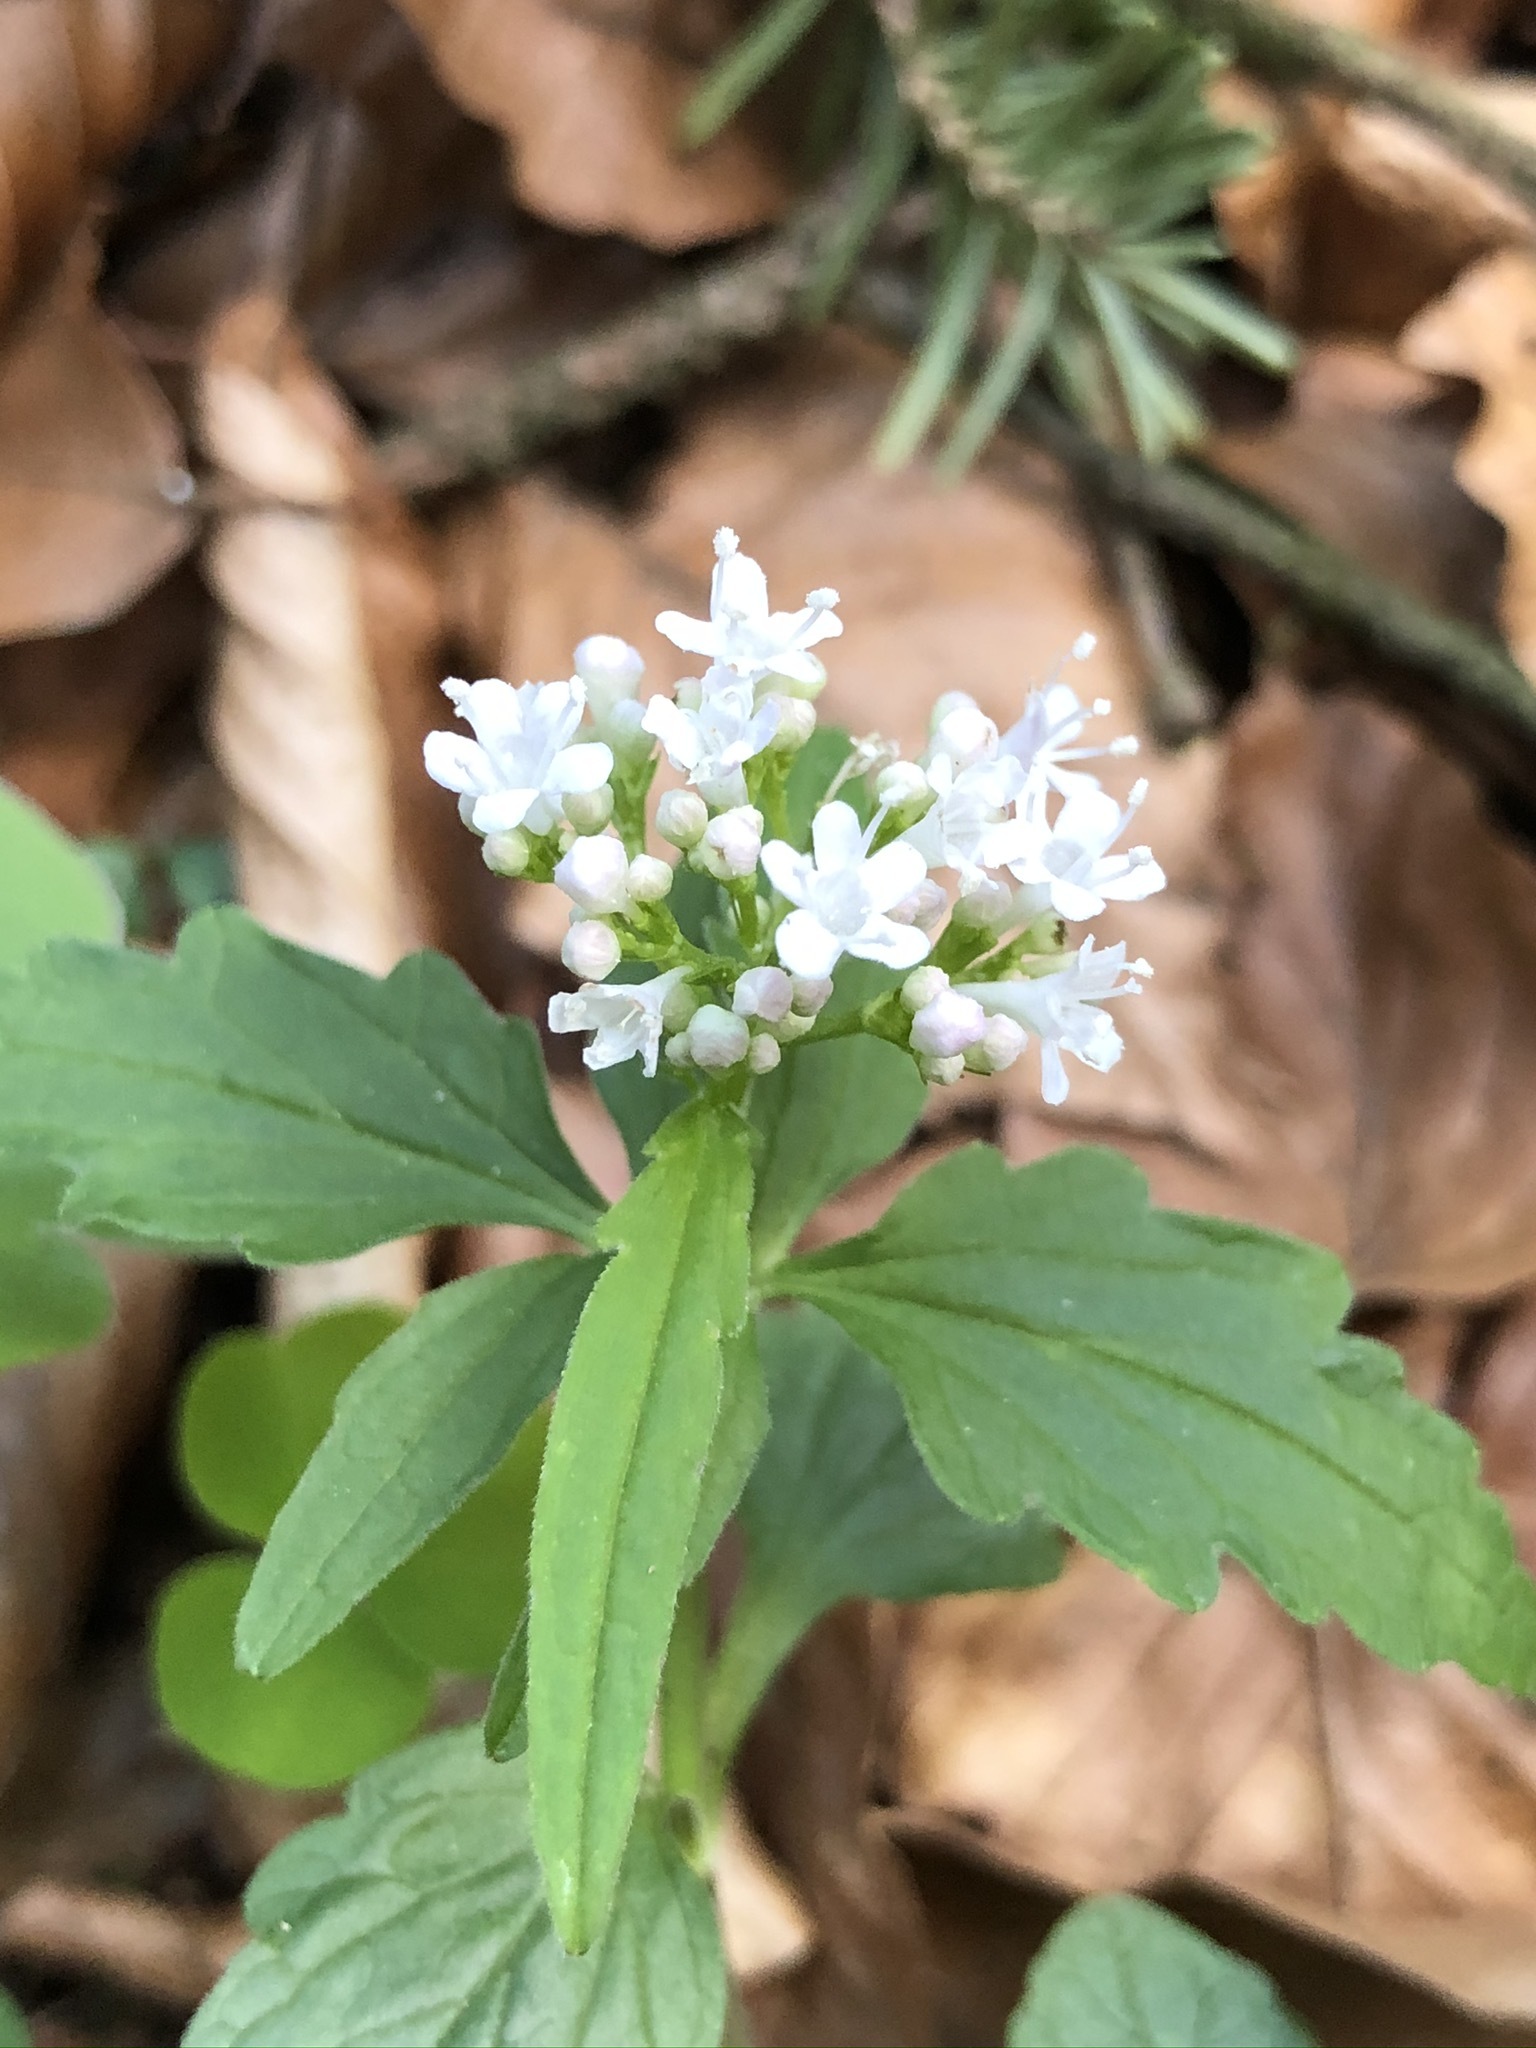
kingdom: Plantae
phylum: Tracheophyta
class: Magnoliopsida
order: Dipsacales
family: Caprifoliaceae
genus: Valeriana
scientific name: Valeriana tripteris
